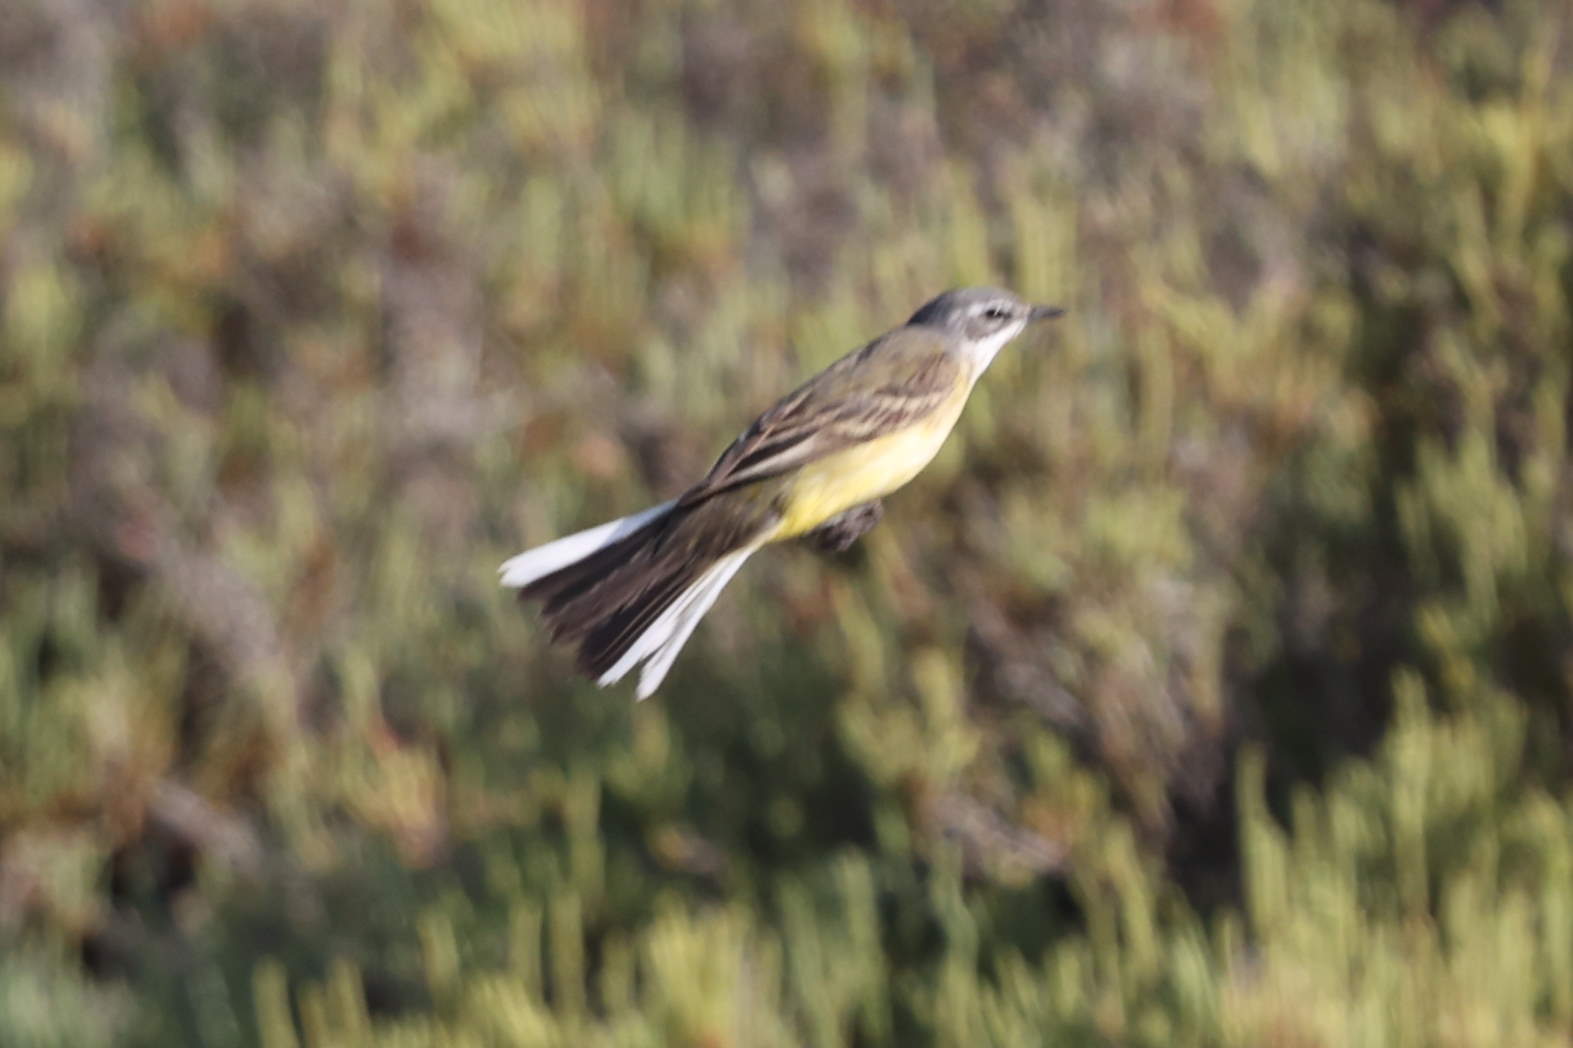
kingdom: Animalia
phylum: Chordata
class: Aves
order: Passeriformes
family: Motacillidae
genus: Motacilla
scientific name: Motacilla flava
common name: Western yellow wagtail
